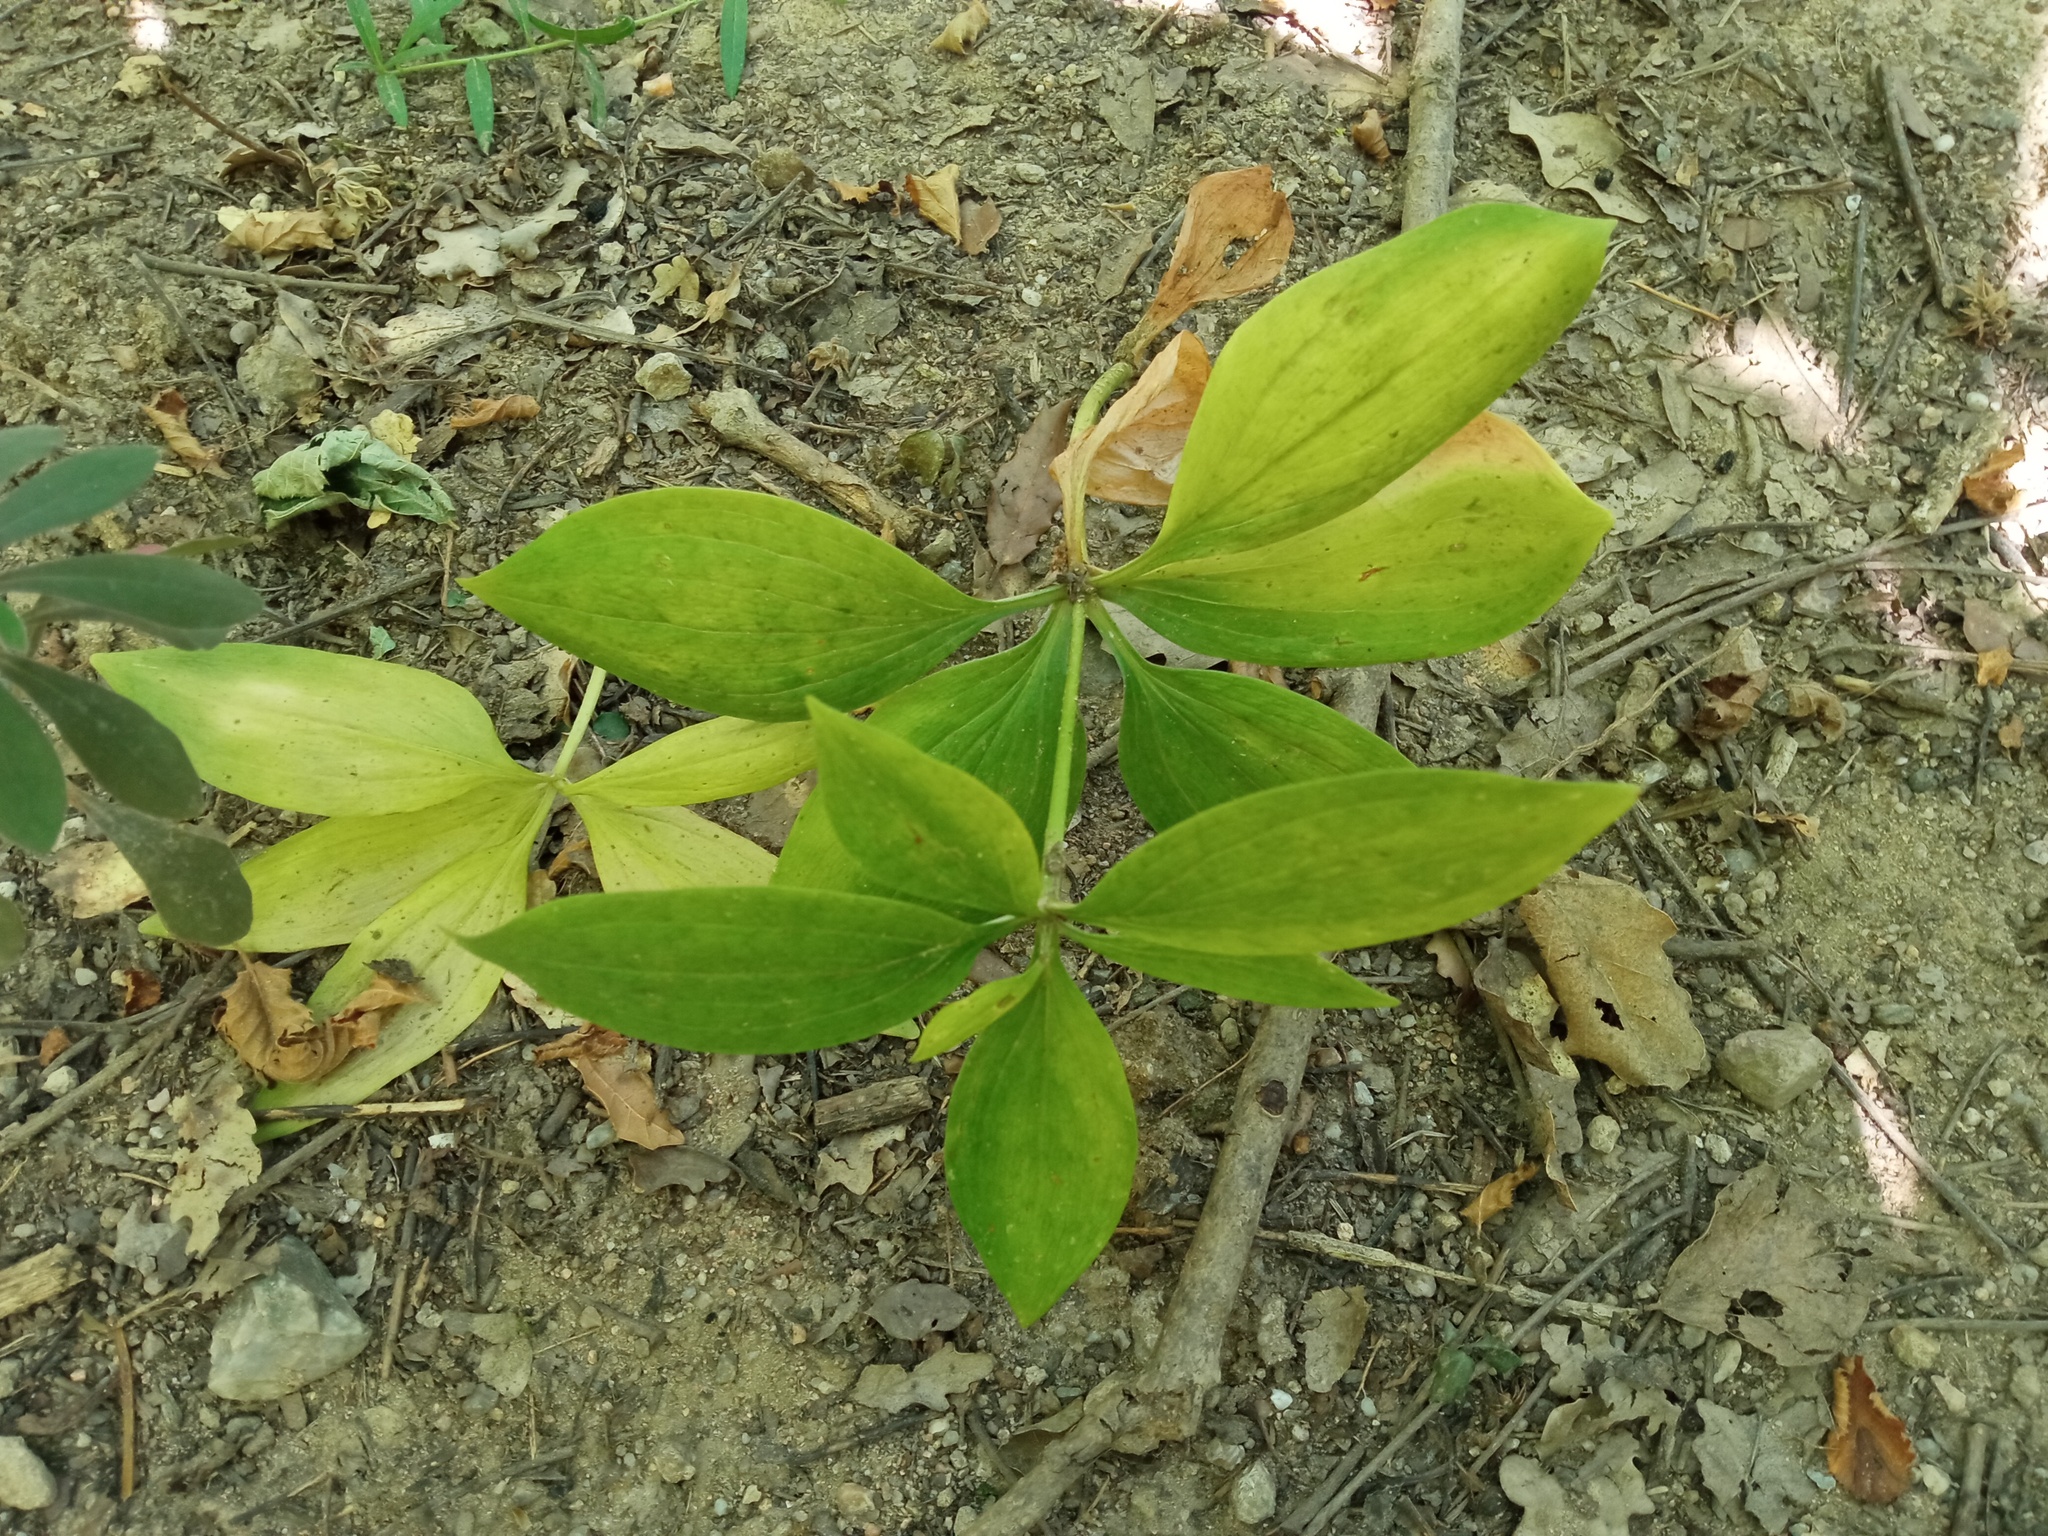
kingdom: Plantae
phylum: Tracheophyta
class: Liliopsida
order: Liliales
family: Liliaceae
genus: Lilium
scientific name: Lilium martagon
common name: Martagon lily
